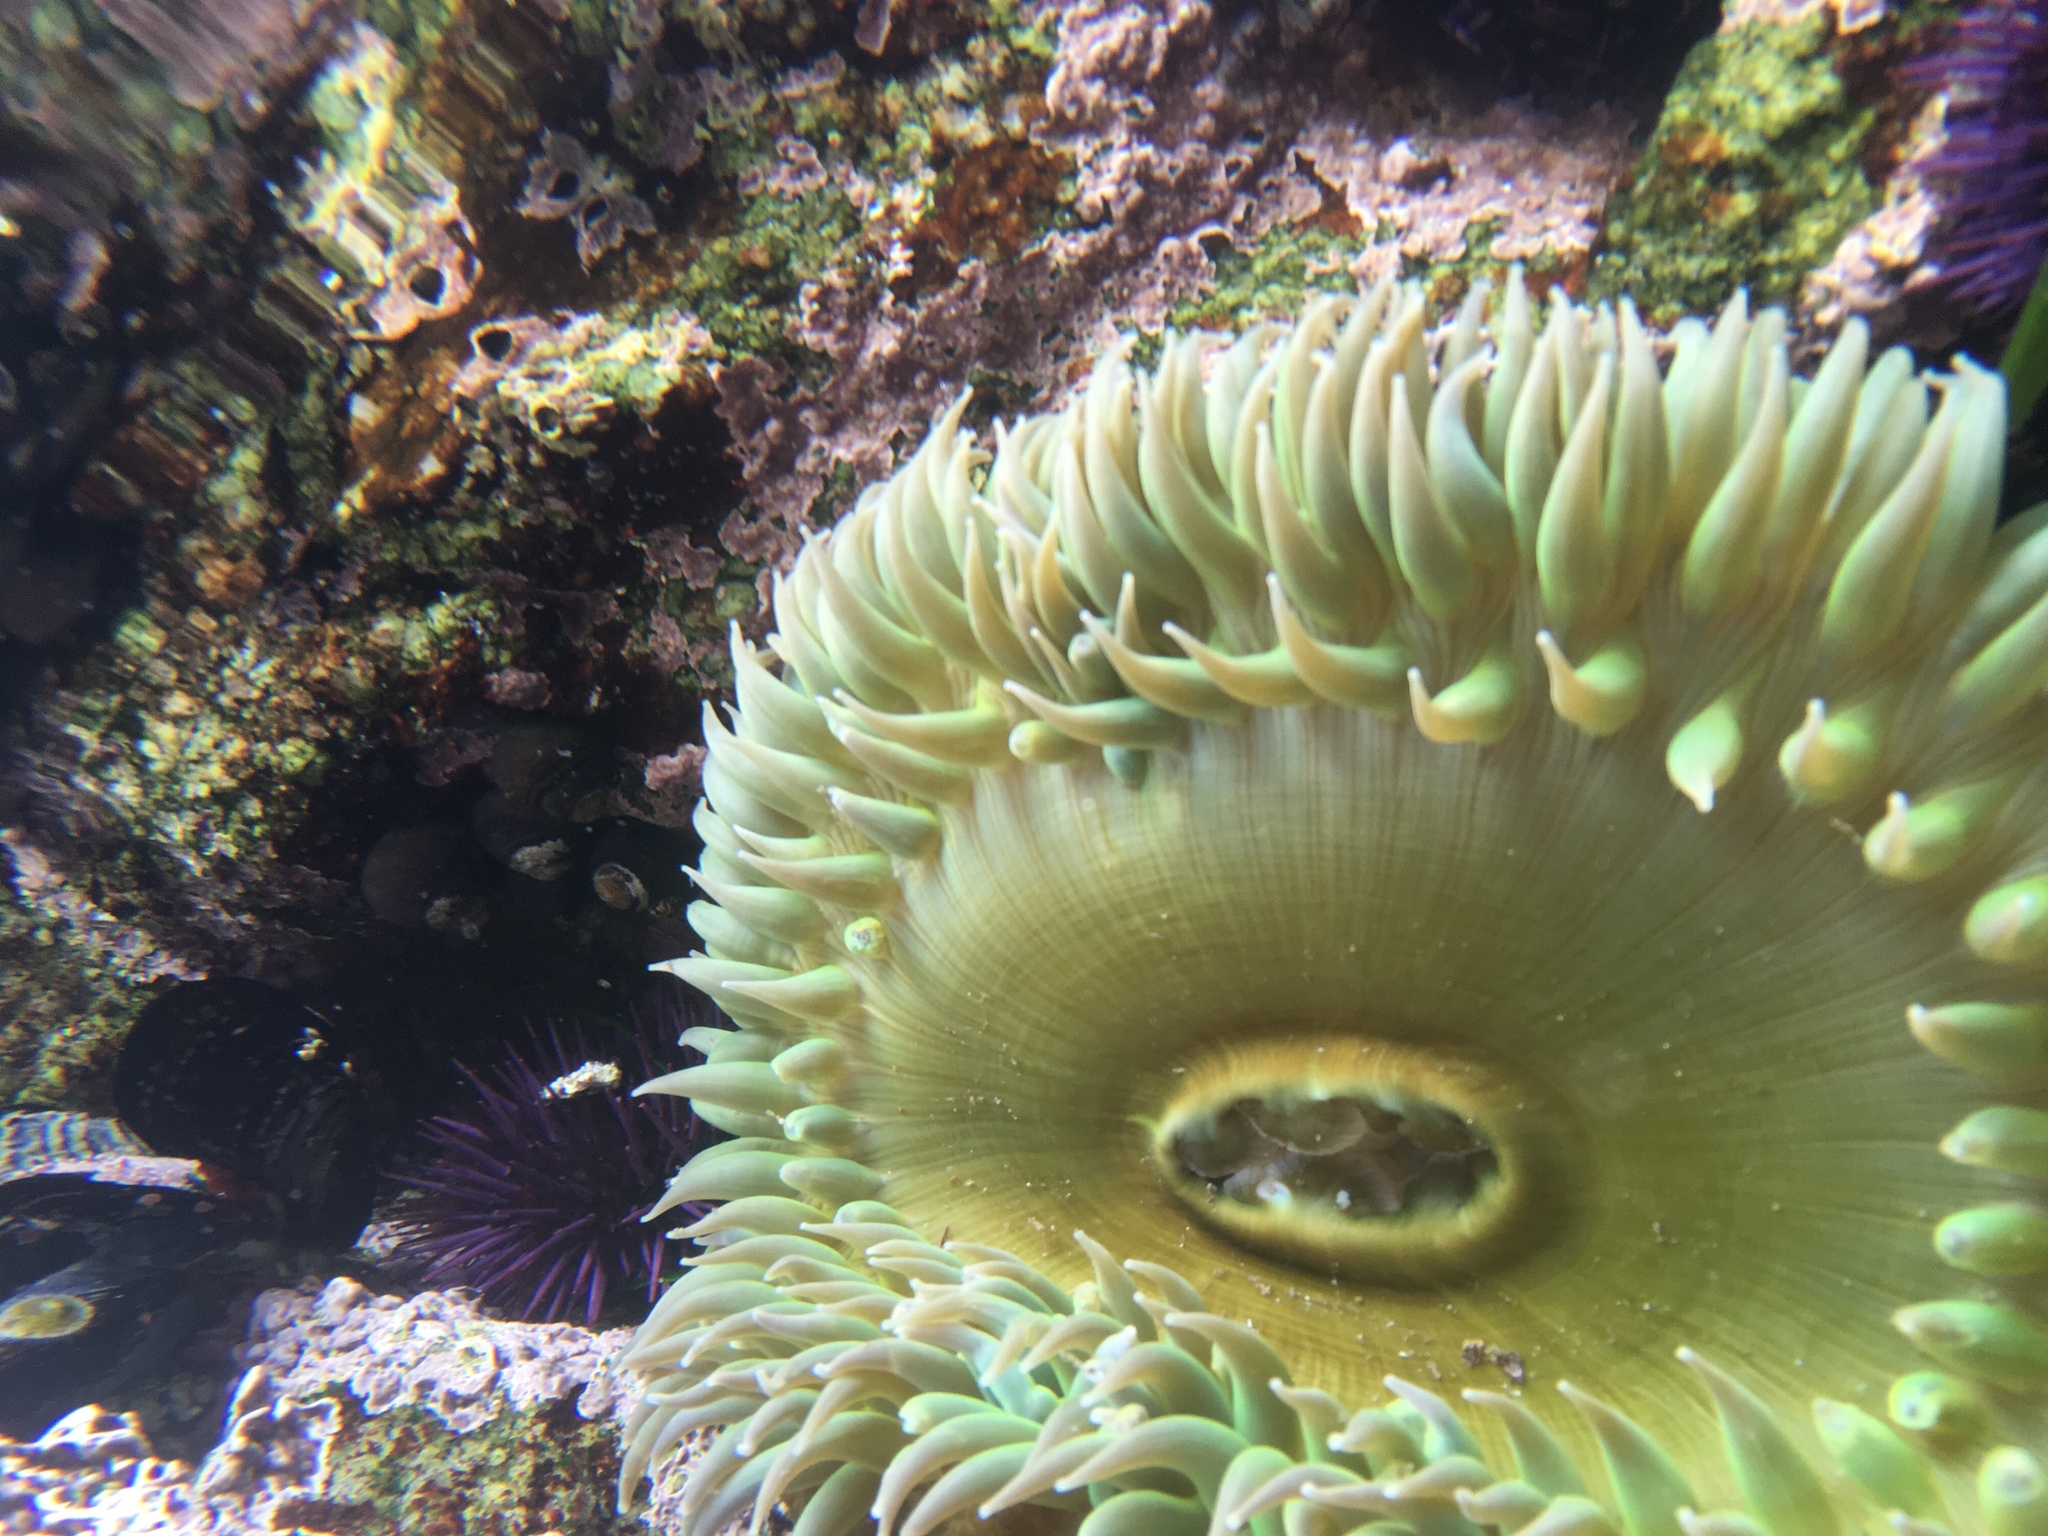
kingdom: Animalia
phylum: Cnidaria
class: Anthozoa
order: Actiniaria
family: Actiniidae
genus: Anthopleura
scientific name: Anthopleura xanthogrammica
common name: Giant green anemone
